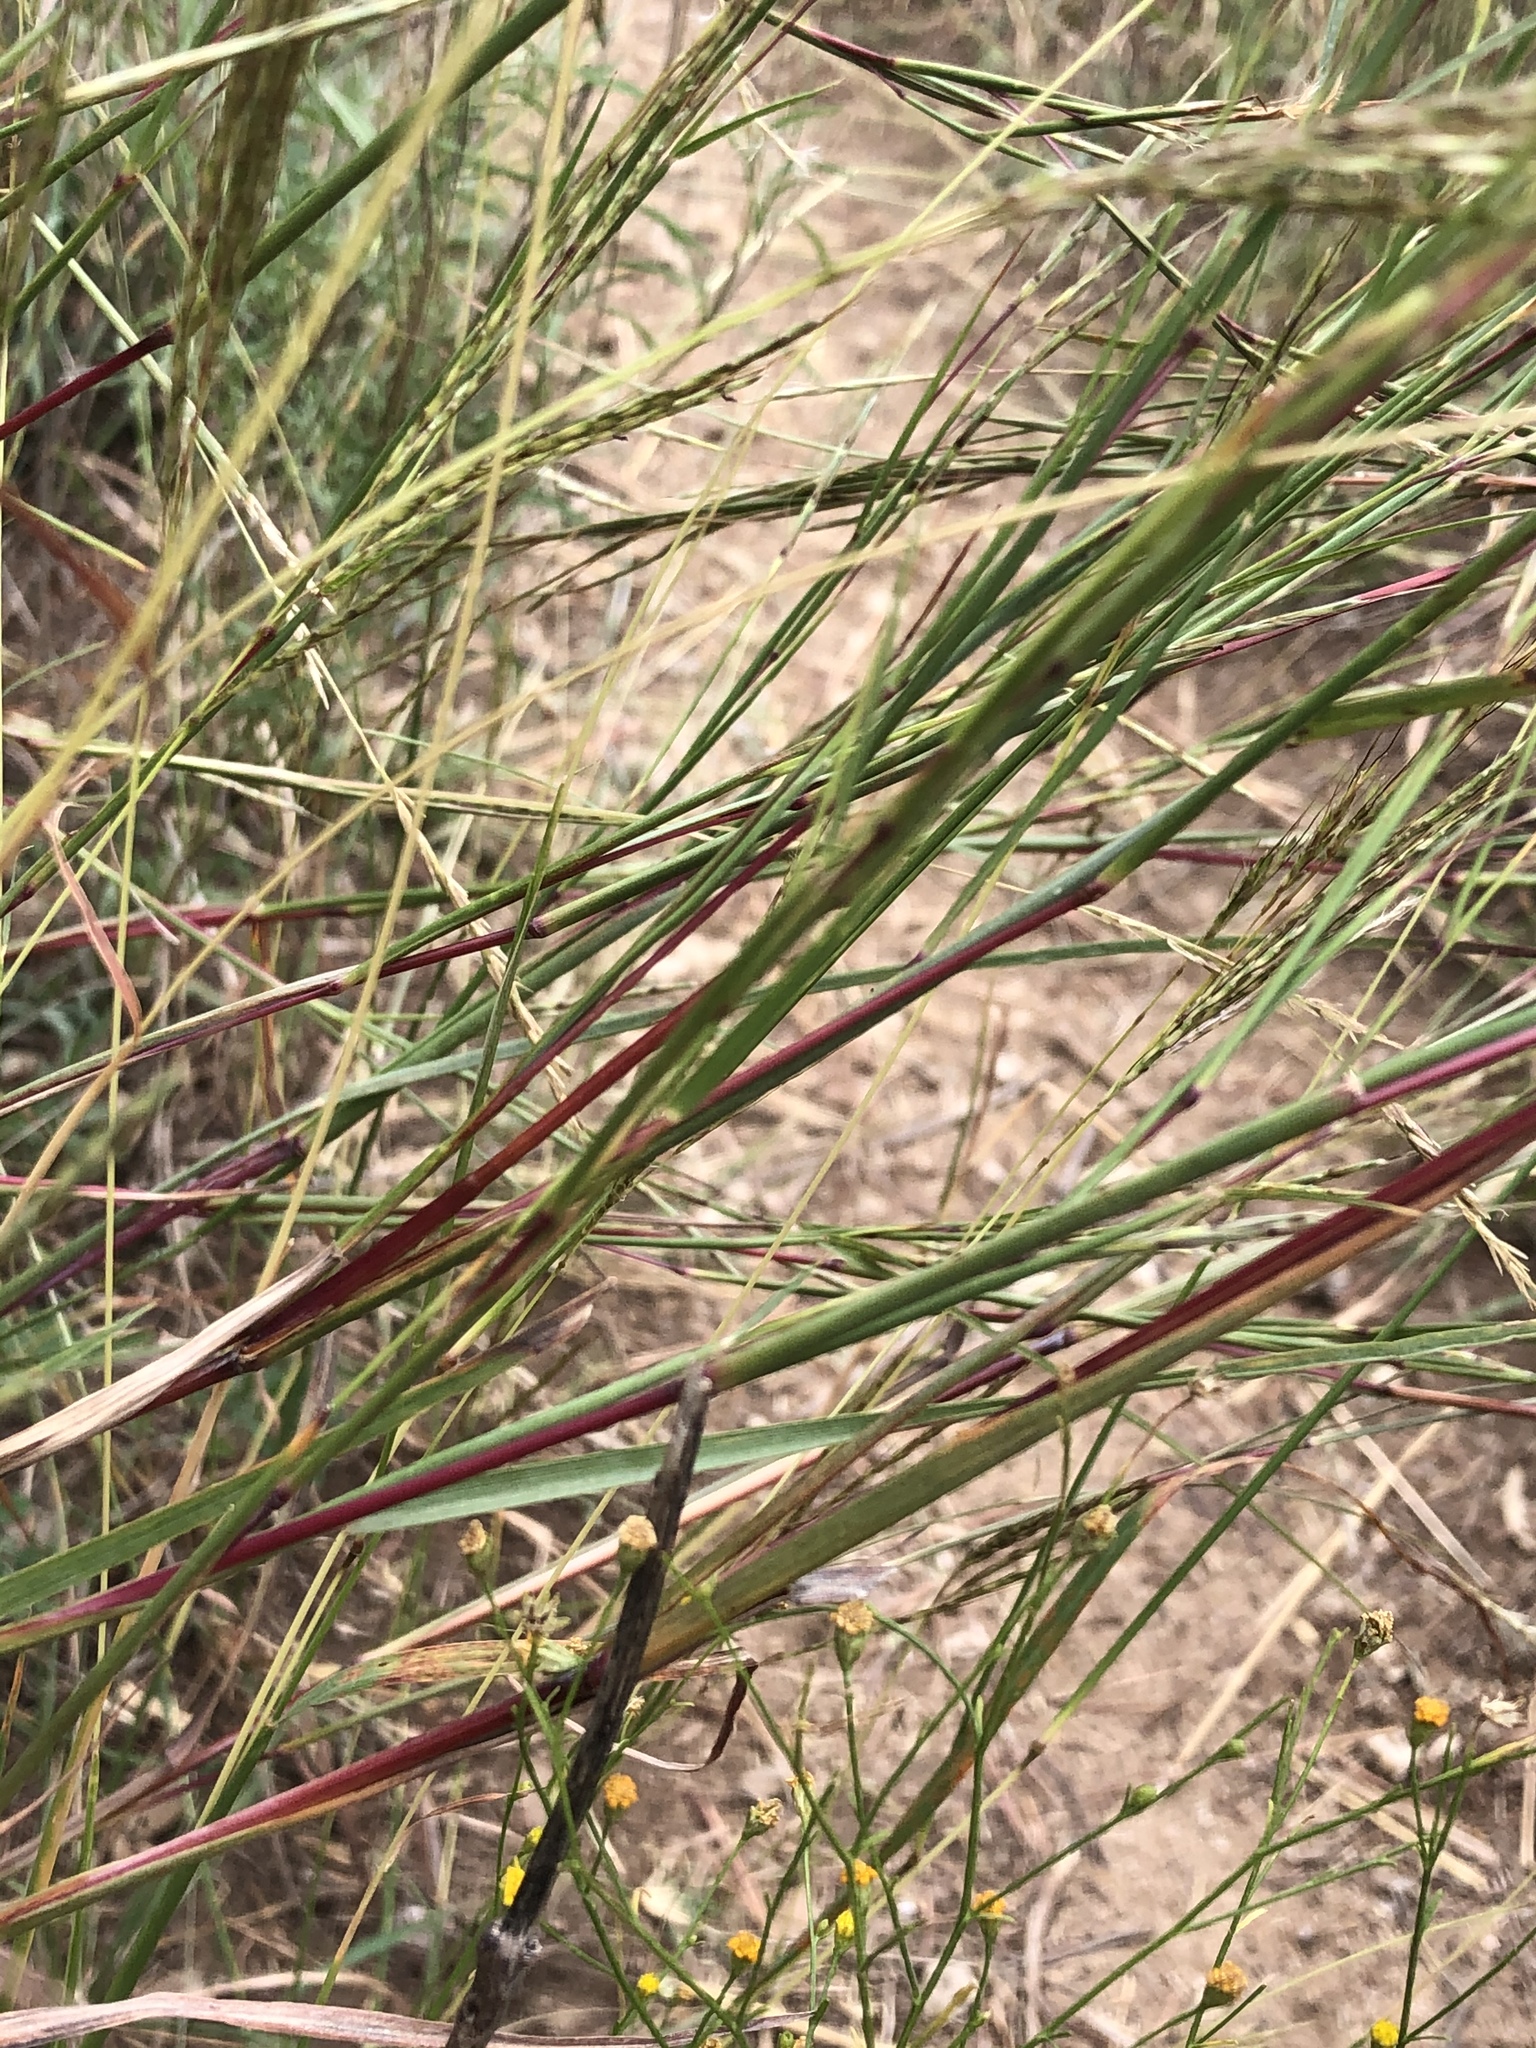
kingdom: Plantae
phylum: Tracheophyta
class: Liliopsida
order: Poales
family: Poaceae
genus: Schizachyrium
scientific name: Schizachyrium scoparium
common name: Little bluestem
